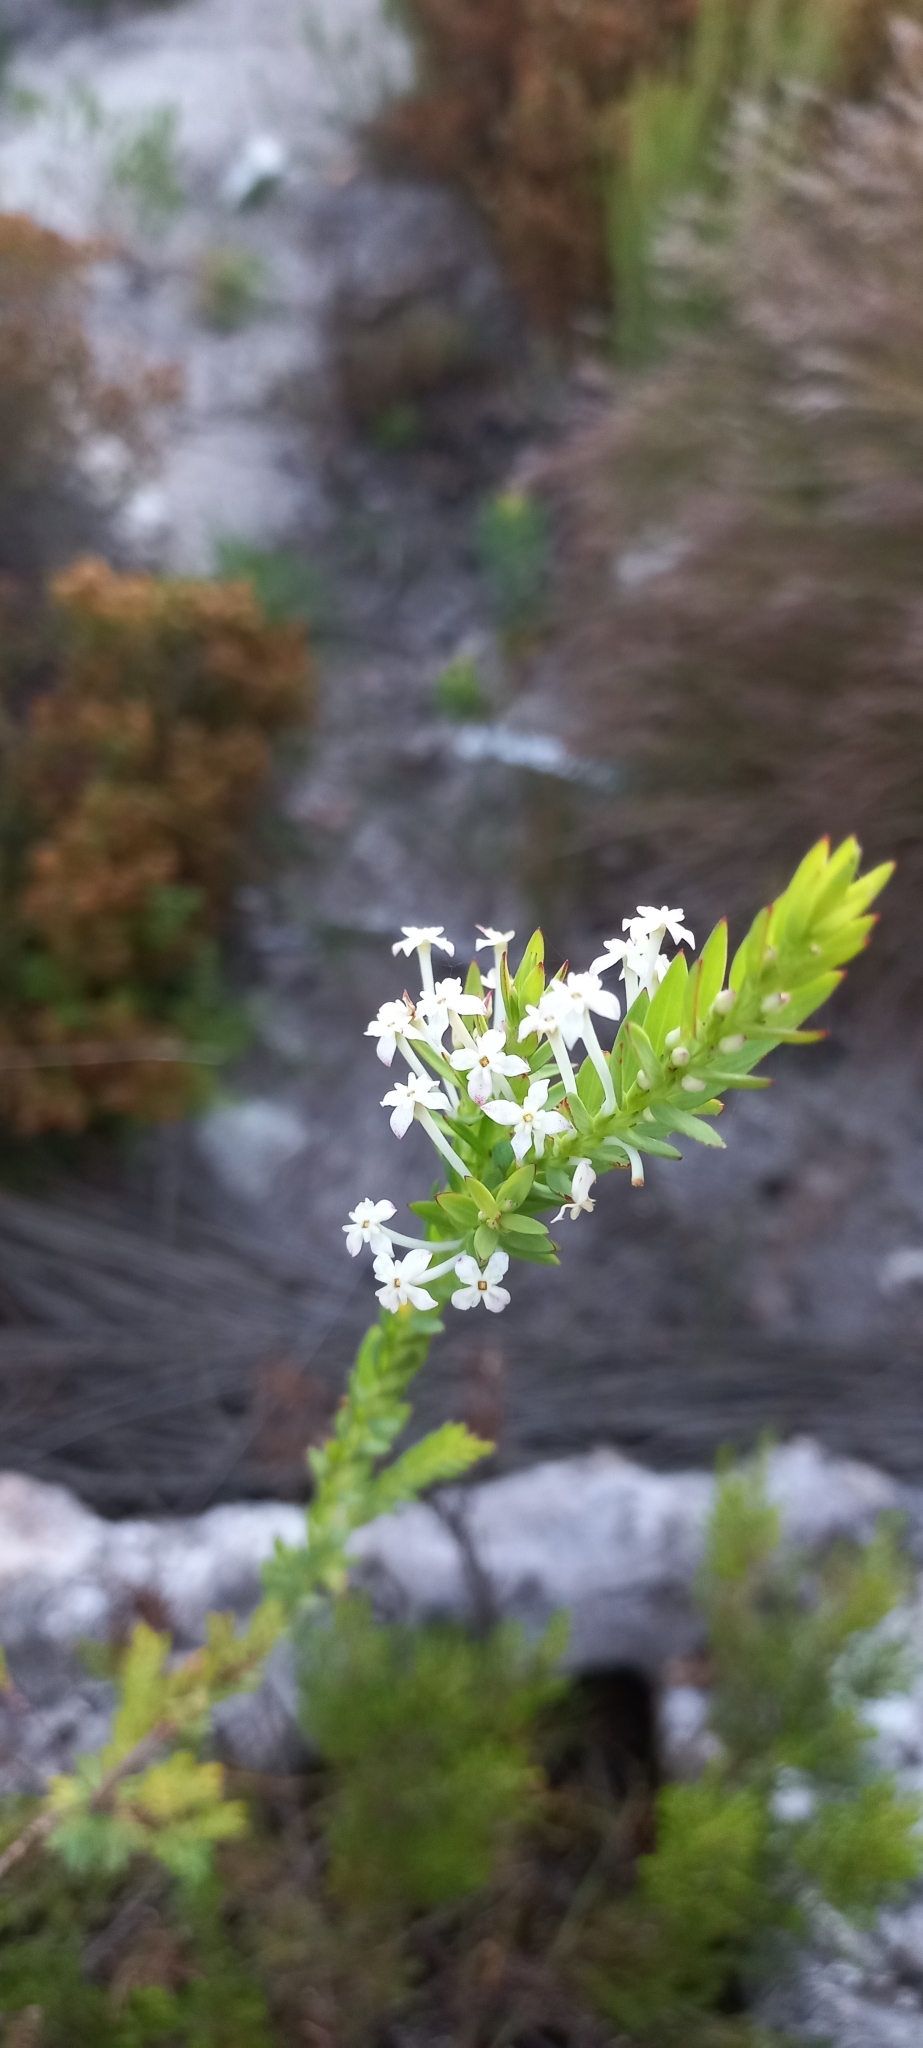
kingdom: Plantae
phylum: Tracheophyta
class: Magnoliopsida
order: Malvales
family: Thymelaeaceae
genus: Struthiola
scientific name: Struthiola myrsinites
